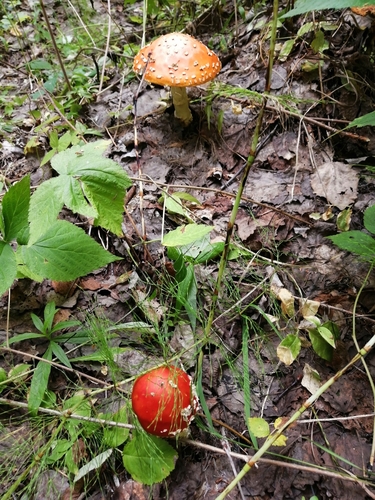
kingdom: Fungi
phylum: Basidiomycota
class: Agaricomycetes
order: Agaricales
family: Amanitaceae
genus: Amanita
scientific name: Amanita muscaria
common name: Fly agaric
